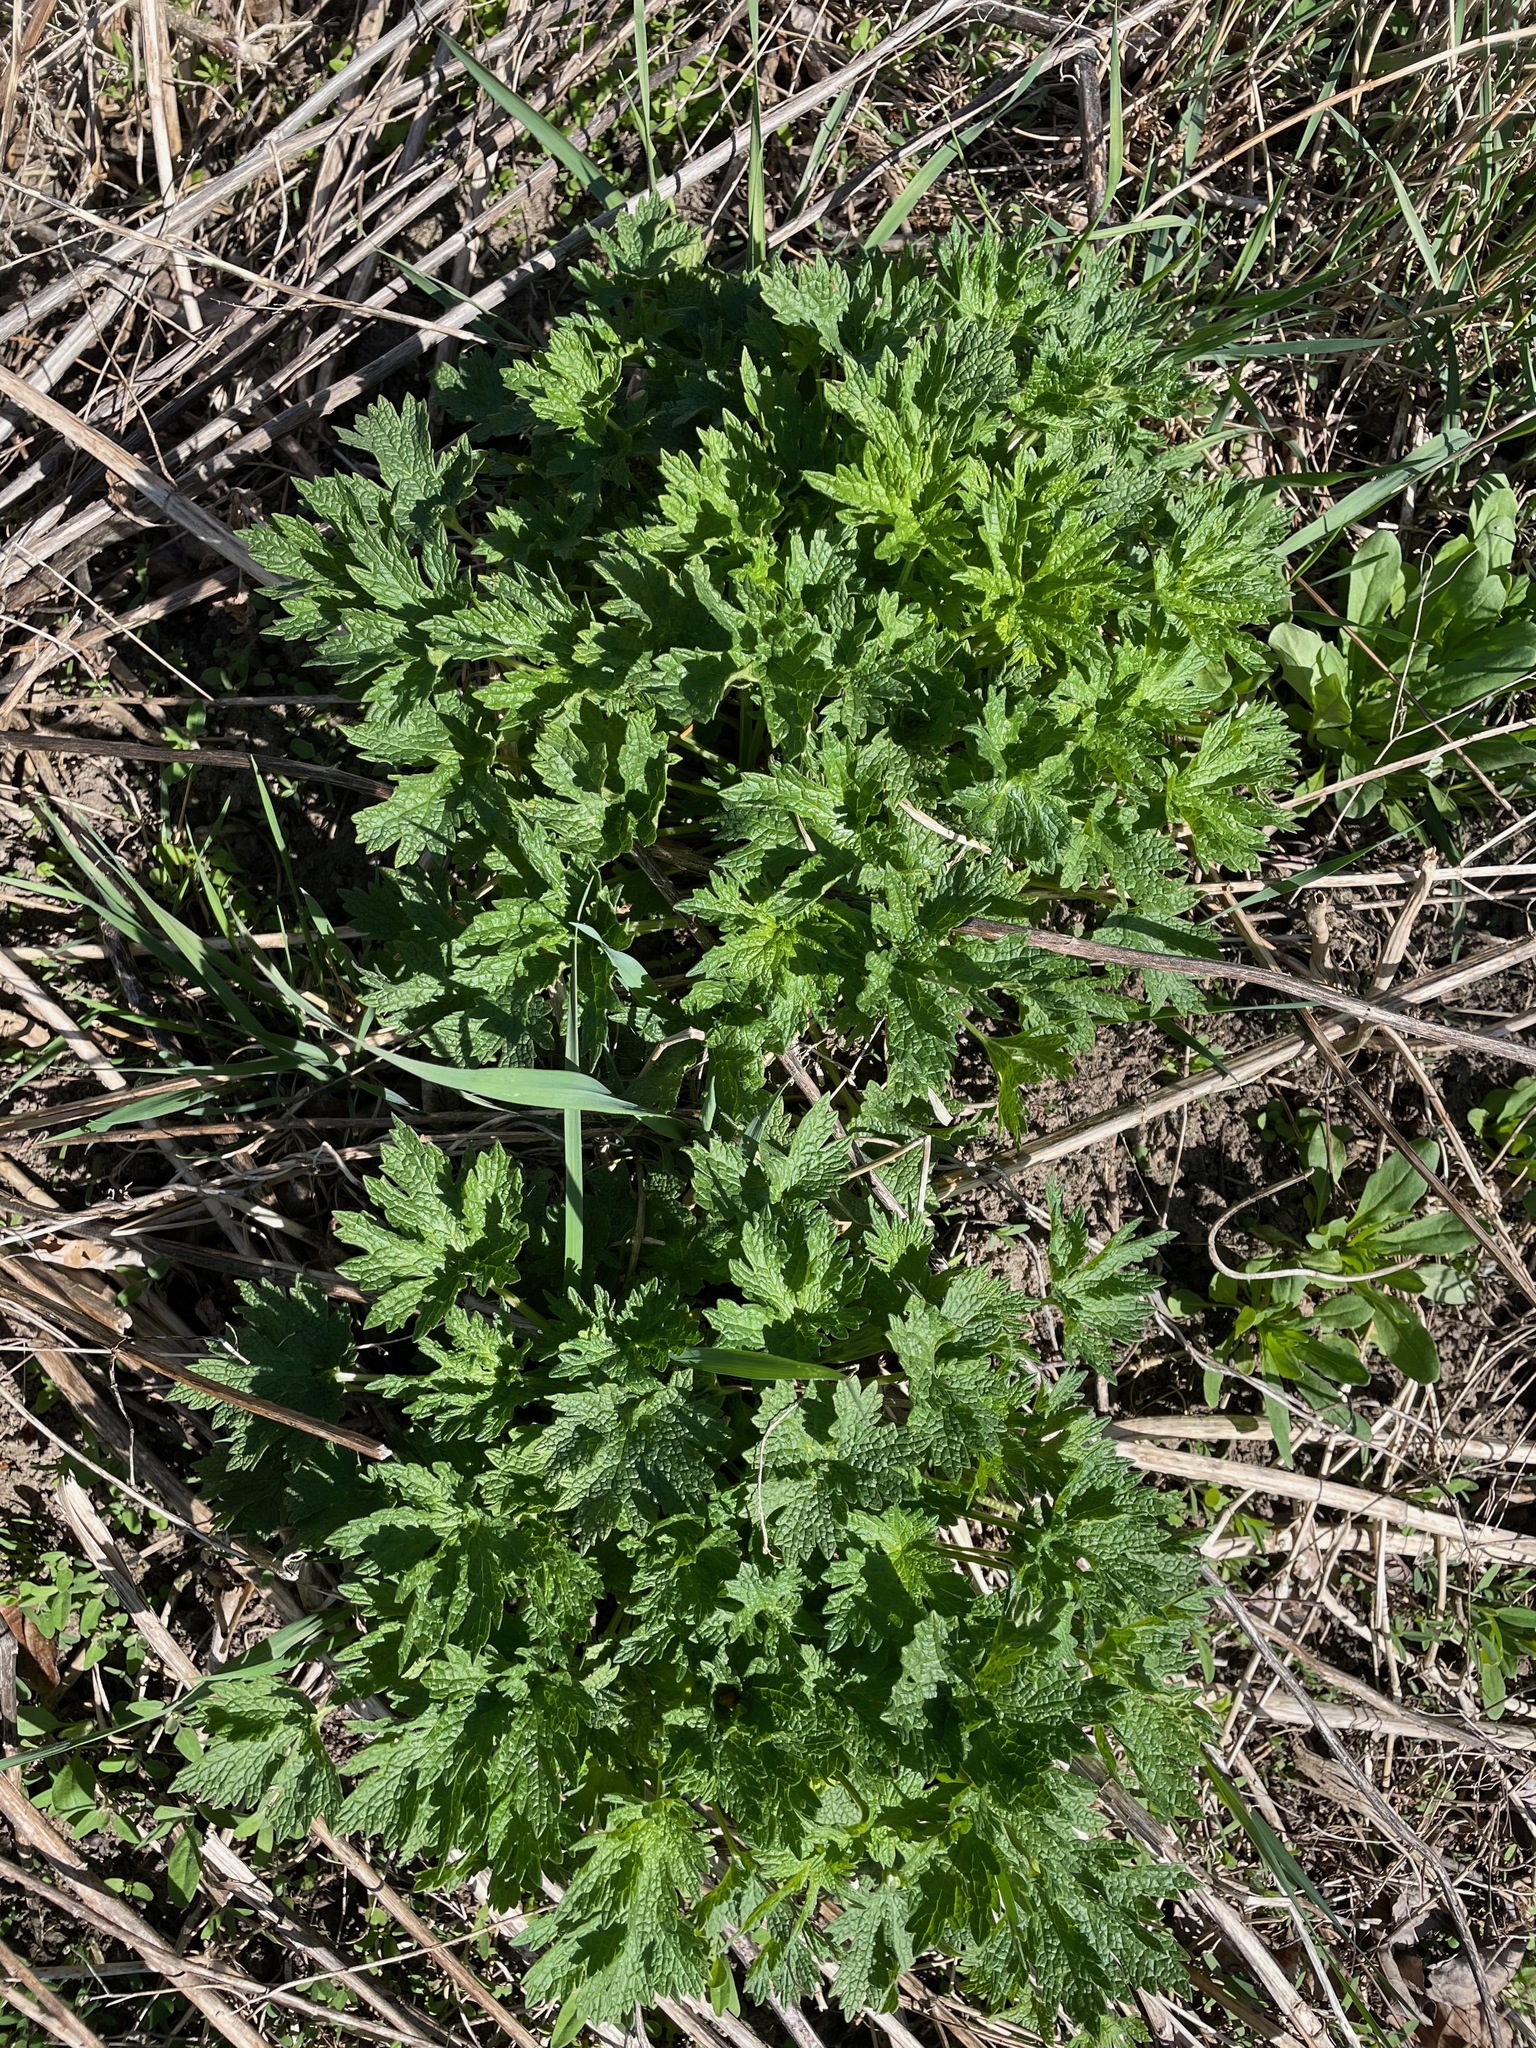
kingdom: Plantae
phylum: Tracheophyta
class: Magnoliopsida
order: Lamiales
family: Lamiaceae
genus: Leonurus
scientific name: Leonurus cardiaca
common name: Motherwort
